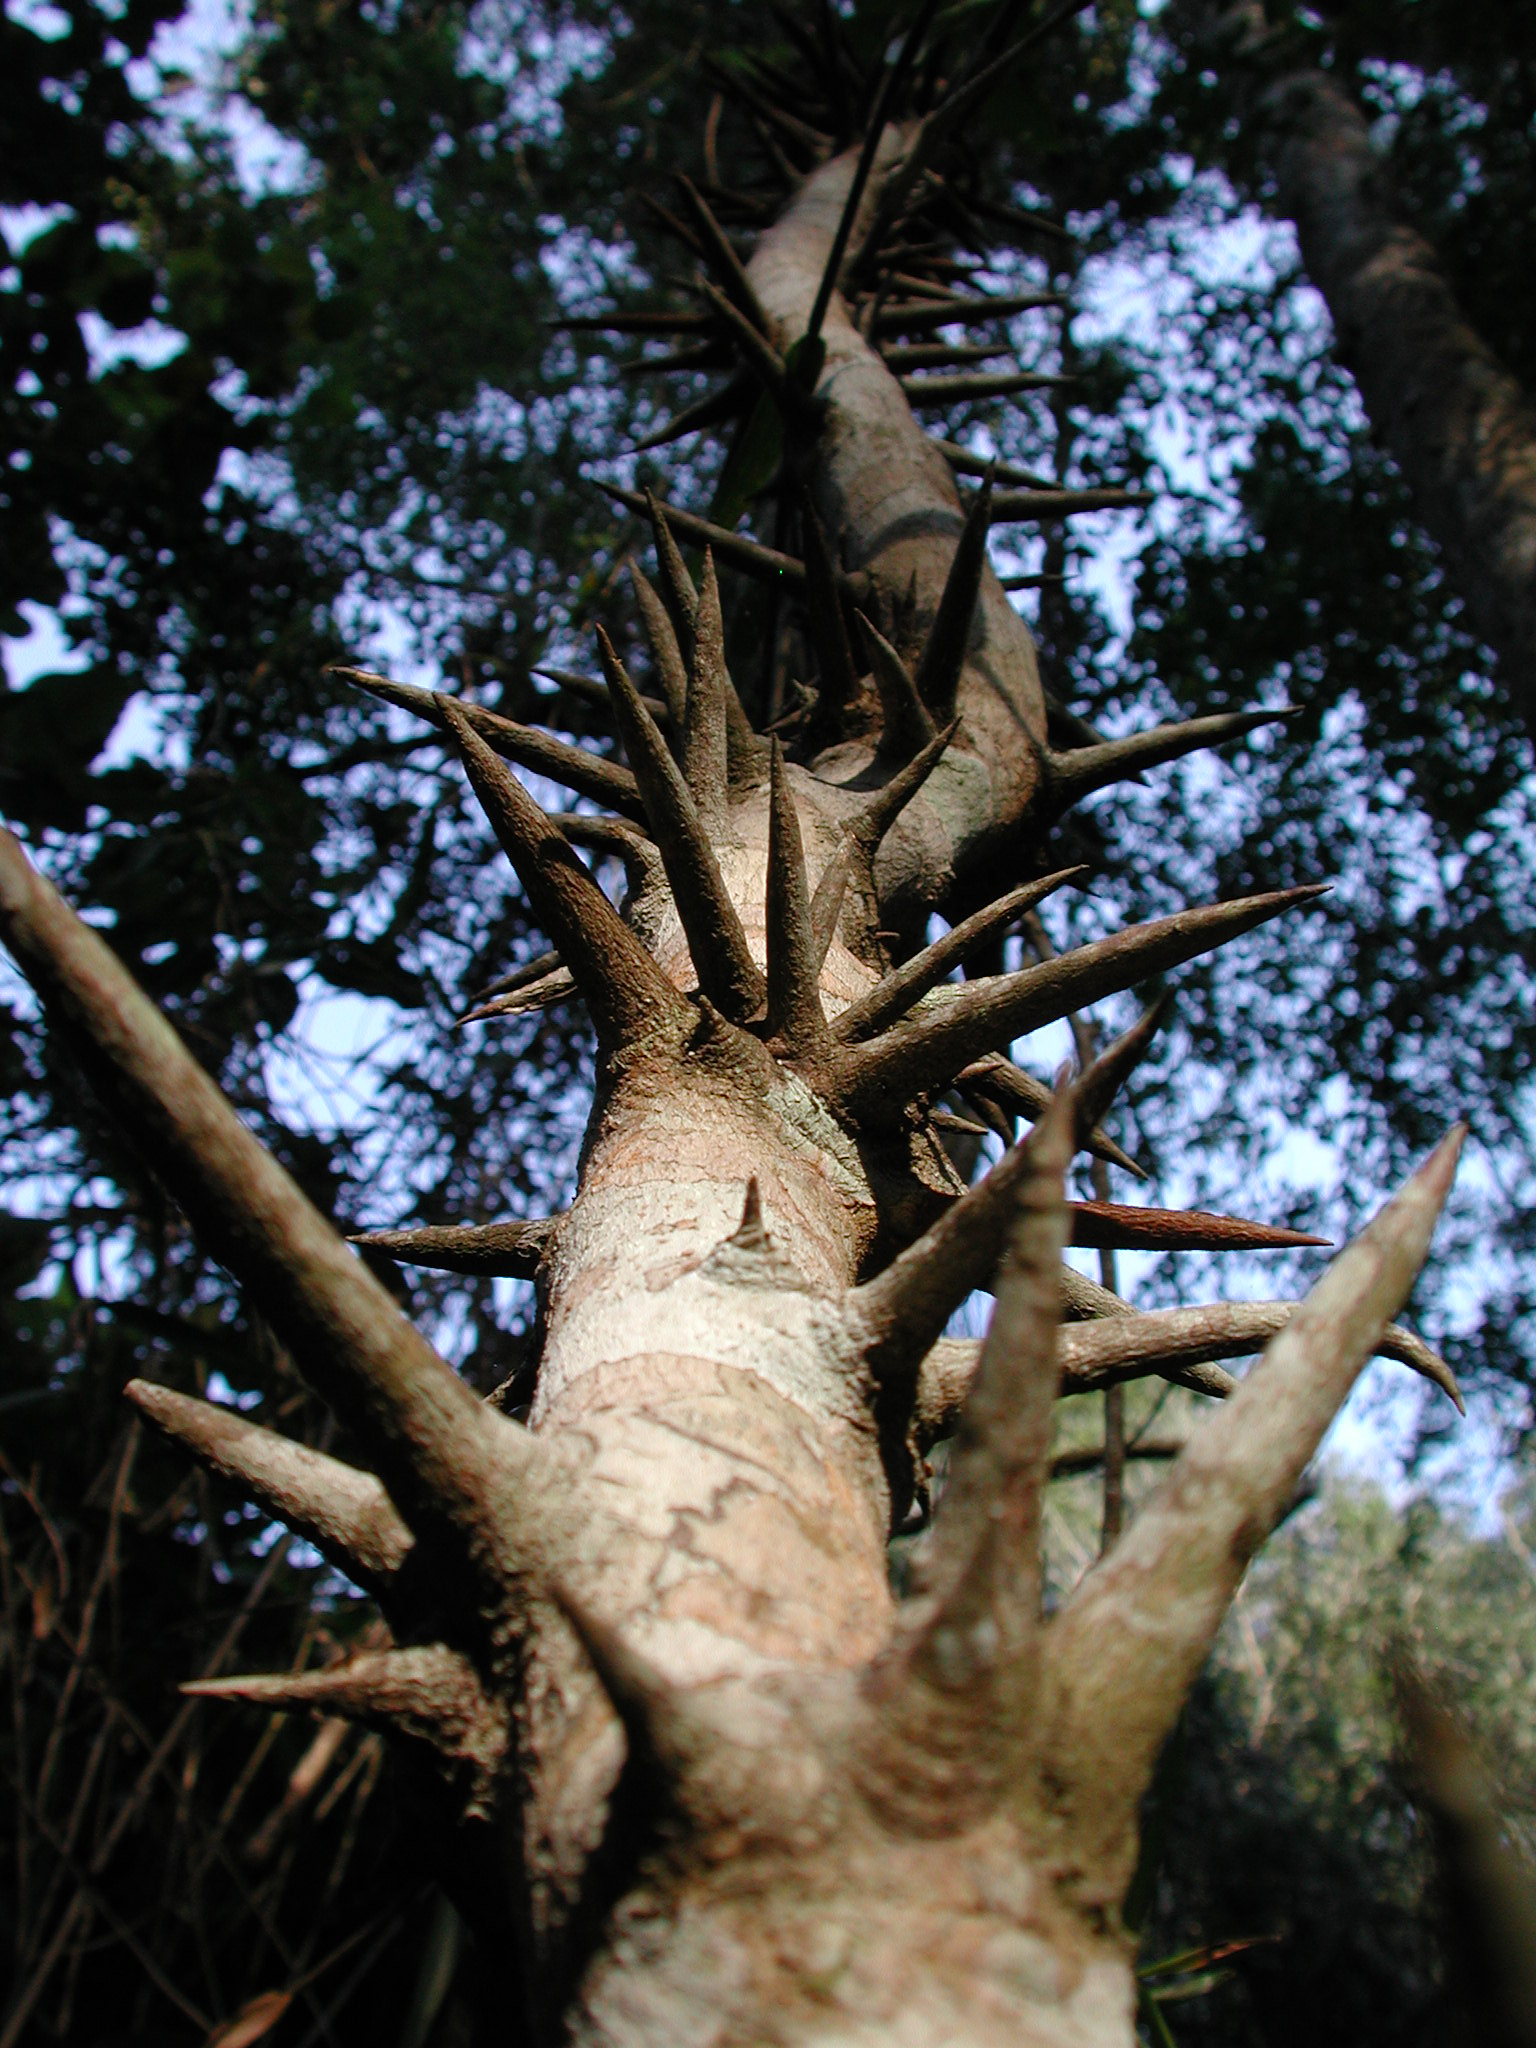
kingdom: Plantae
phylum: Tracheophyta
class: Magnoliopsida
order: Fabales
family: Fabaceae
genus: Dalbergia
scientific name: Dalbergia armata
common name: Hluhluwe climber
